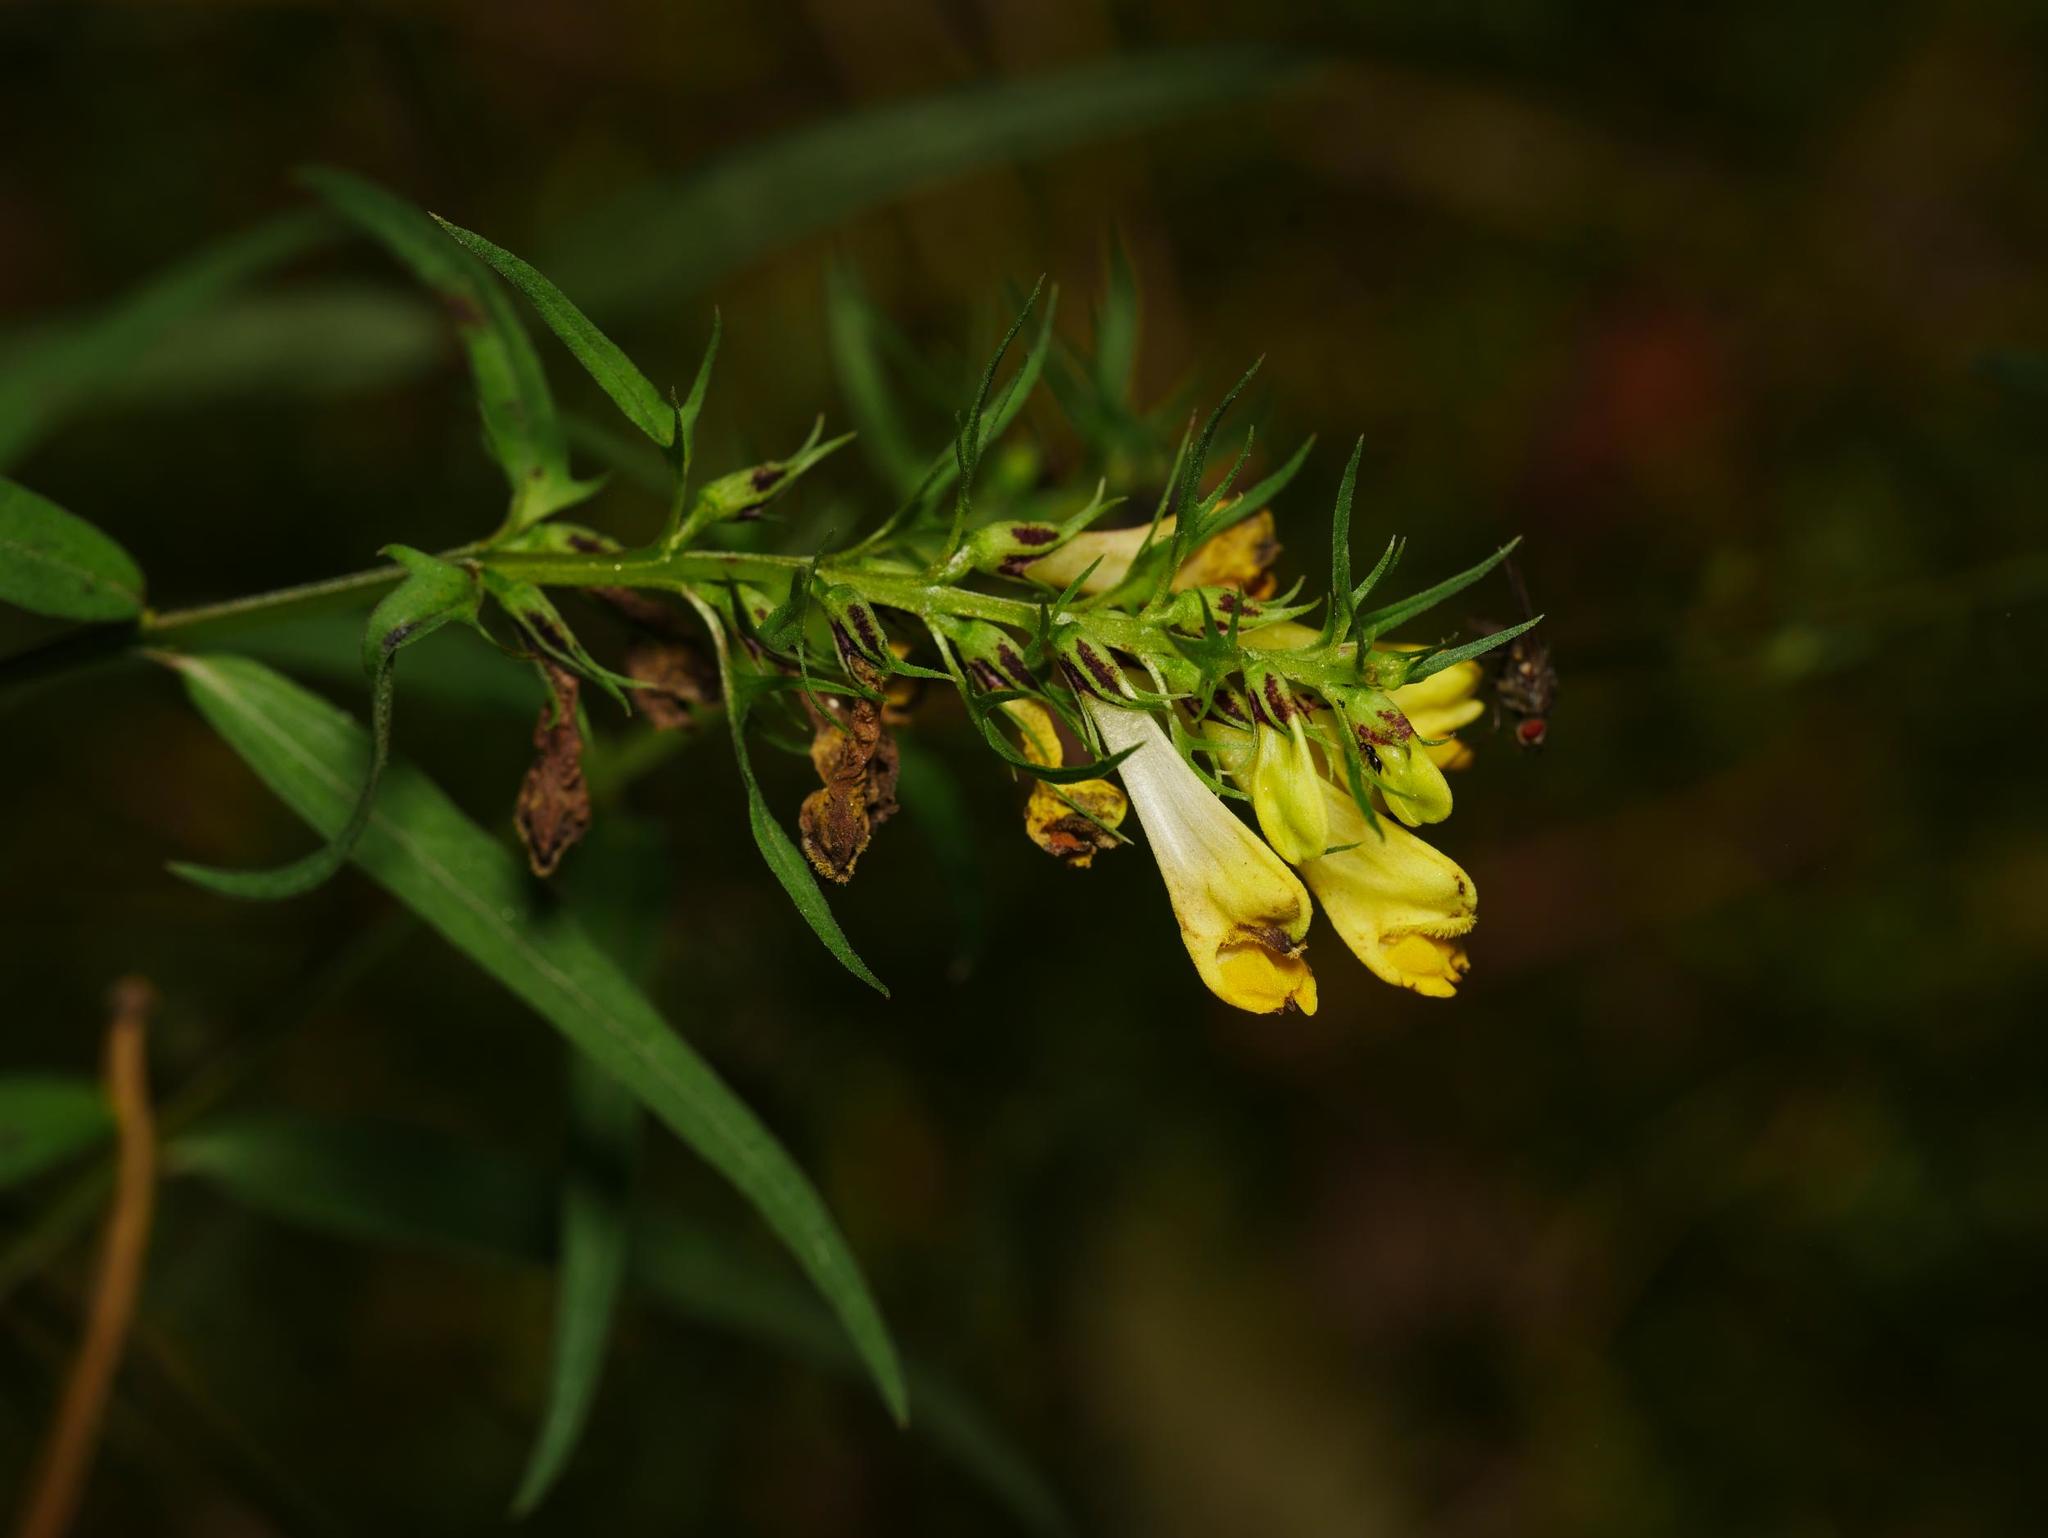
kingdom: Plantae
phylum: Tracheophyta
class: Magnoliopsida
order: Lamiales
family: Orobanchaceae
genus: Melampyrum
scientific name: Melampyrum pratense
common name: Common cow-wheat
